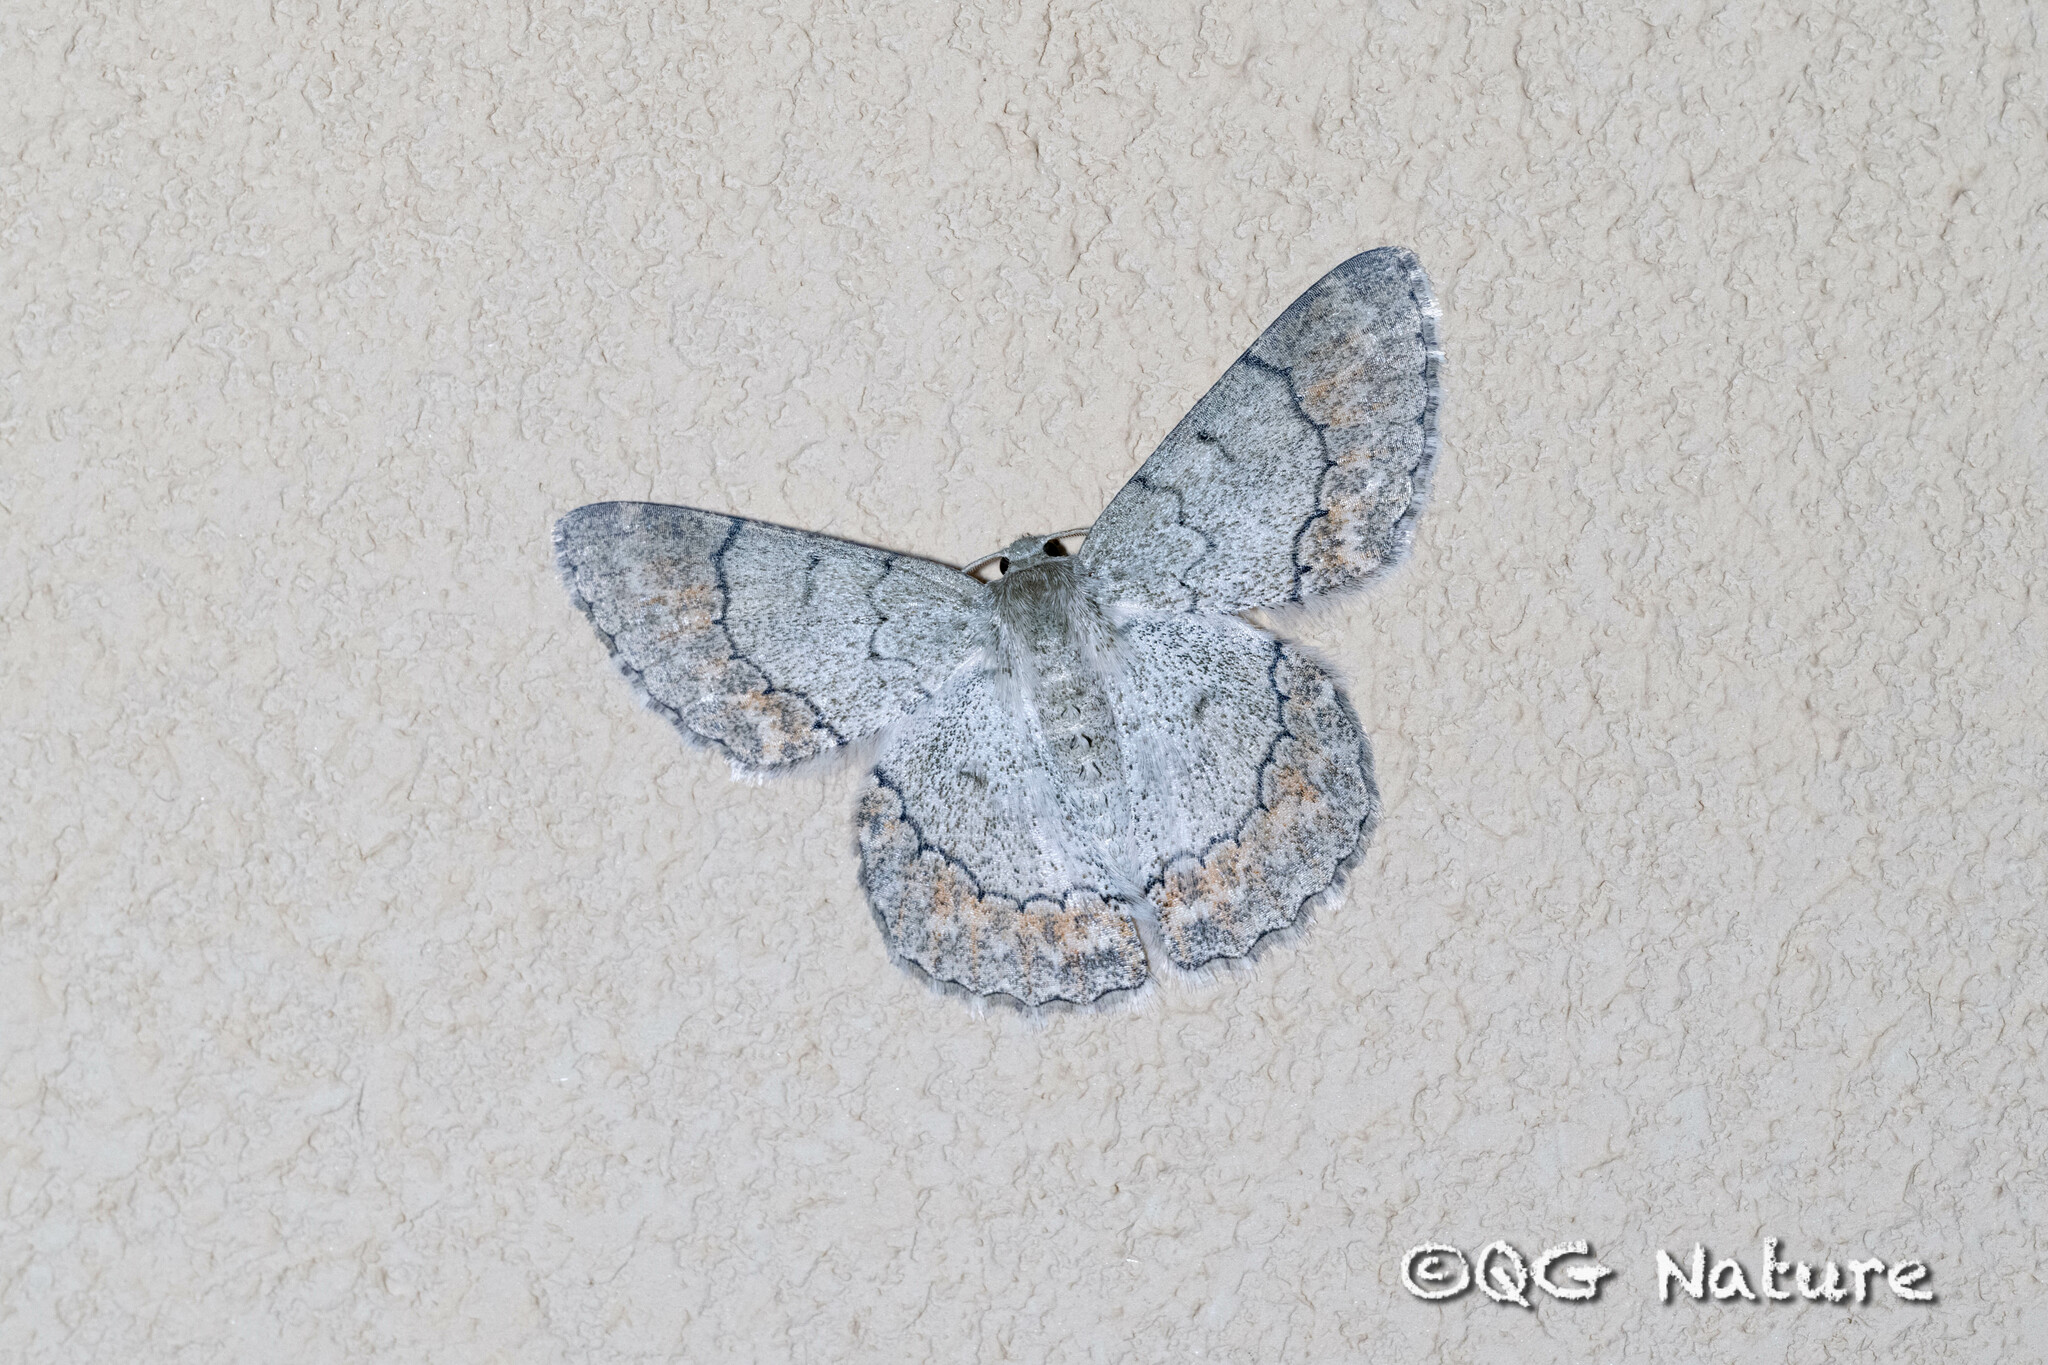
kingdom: Animalia
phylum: Arthropoda
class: Insecta
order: Lepidoptera
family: Geometridae
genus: Pingasa
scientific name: Pingasa rufofasciata
